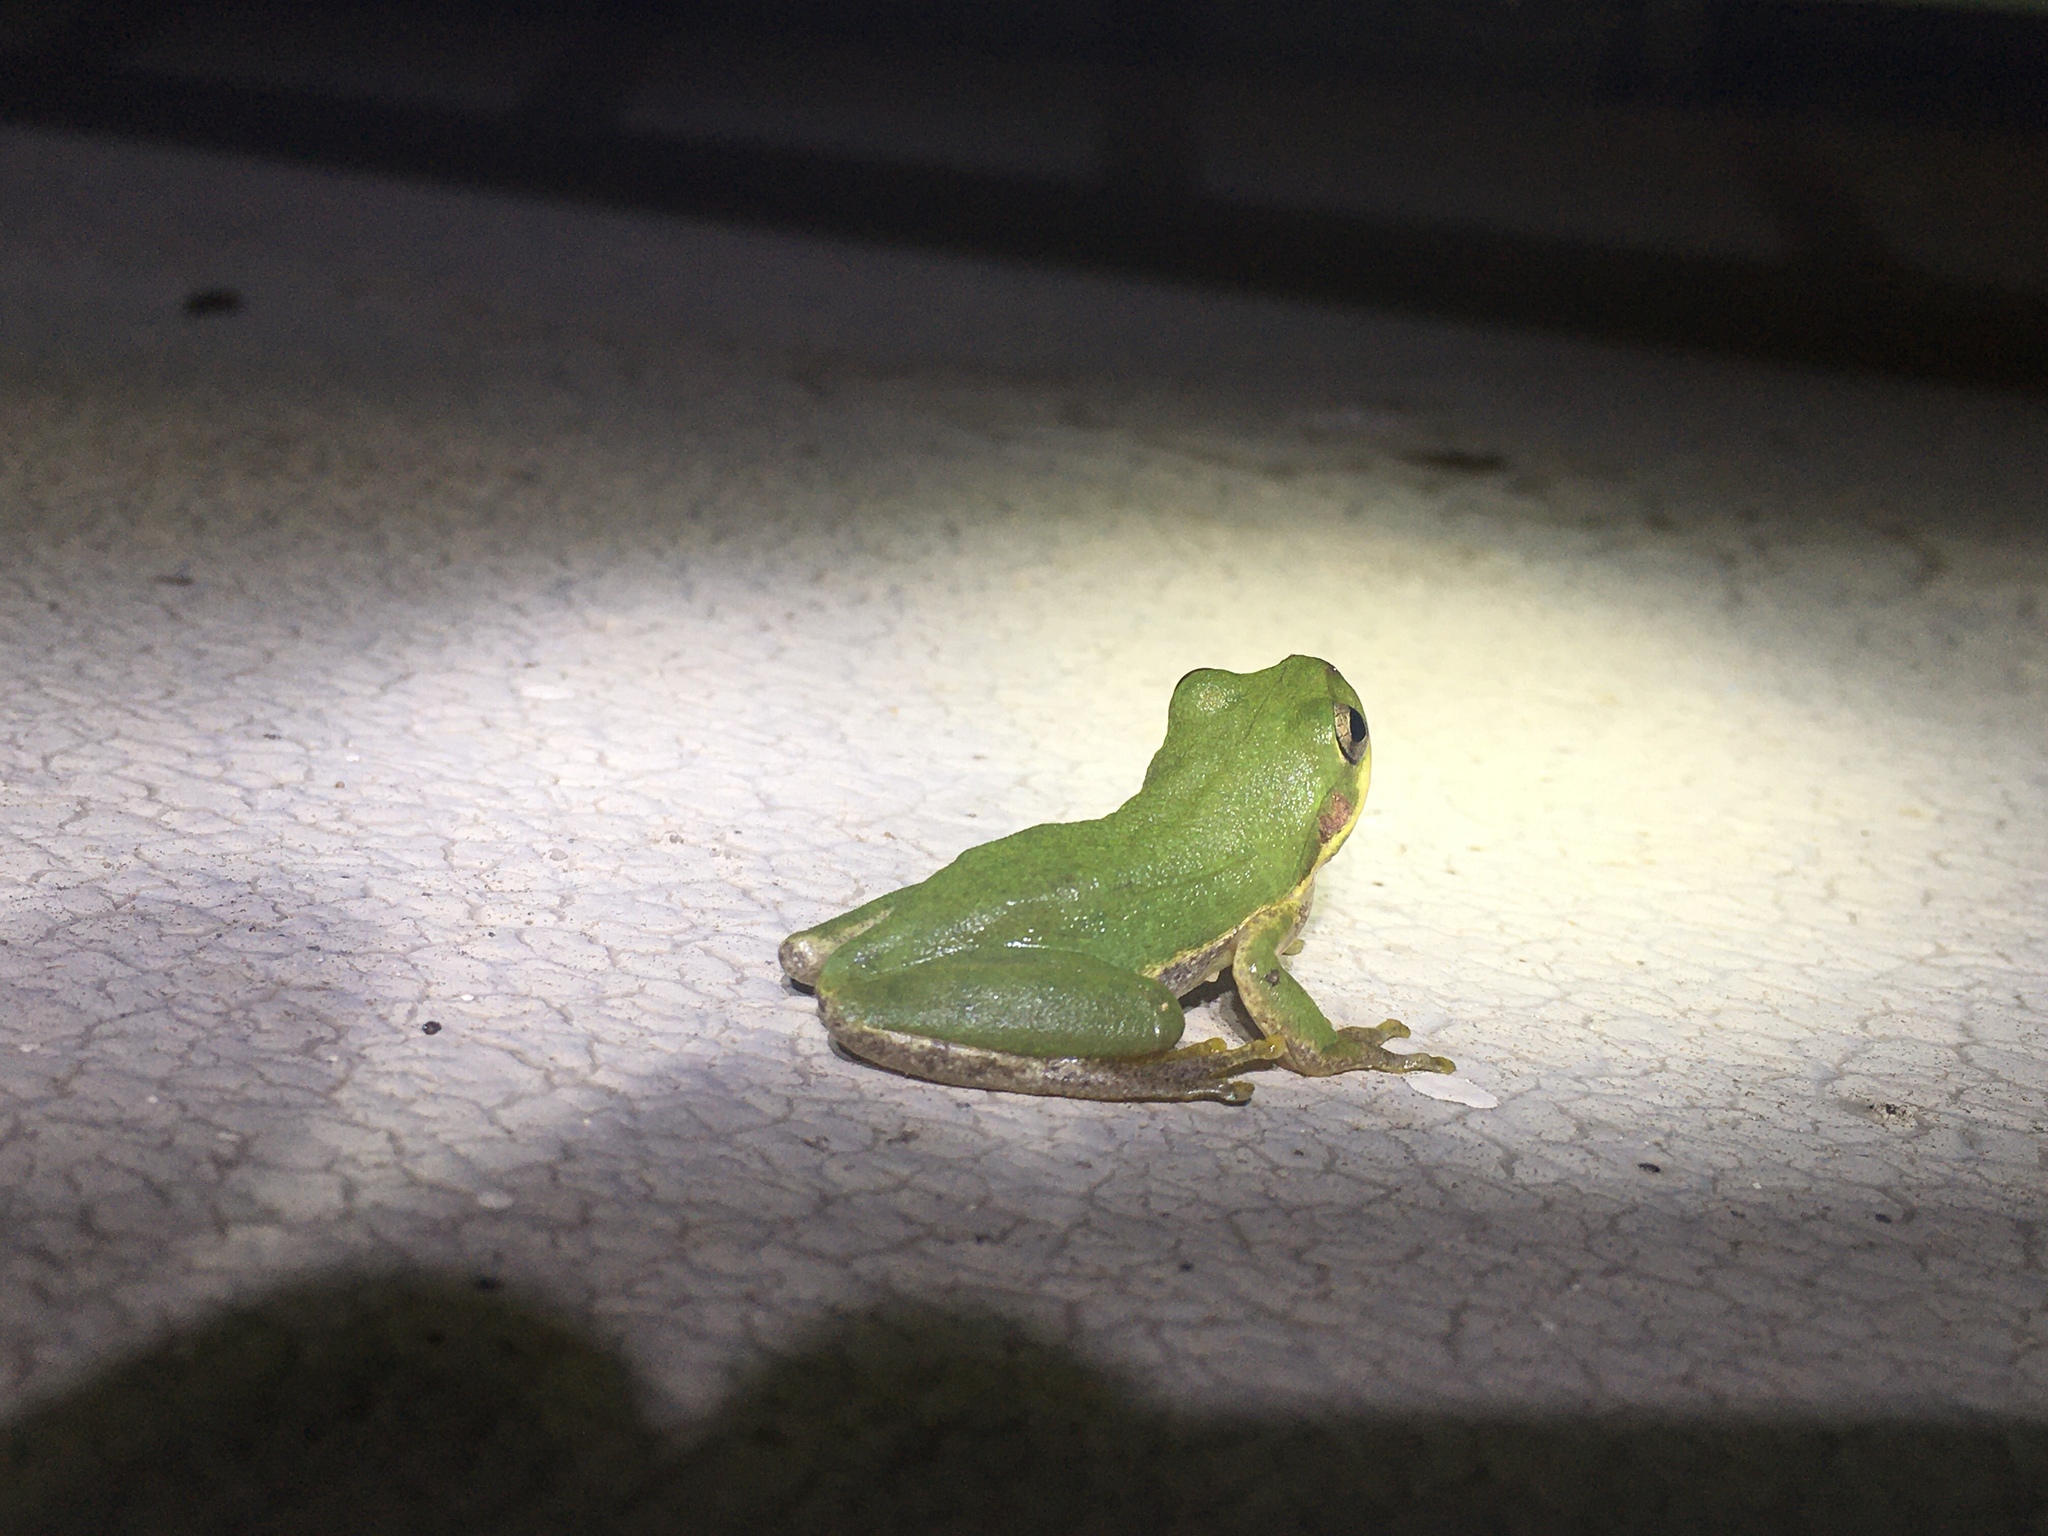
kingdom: Animalia
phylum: Chordata
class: Amphibia
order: Anura
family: Hylidae
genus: Dryophytes
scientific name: Dryophytes squirellus
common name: Squirrel treefrog
